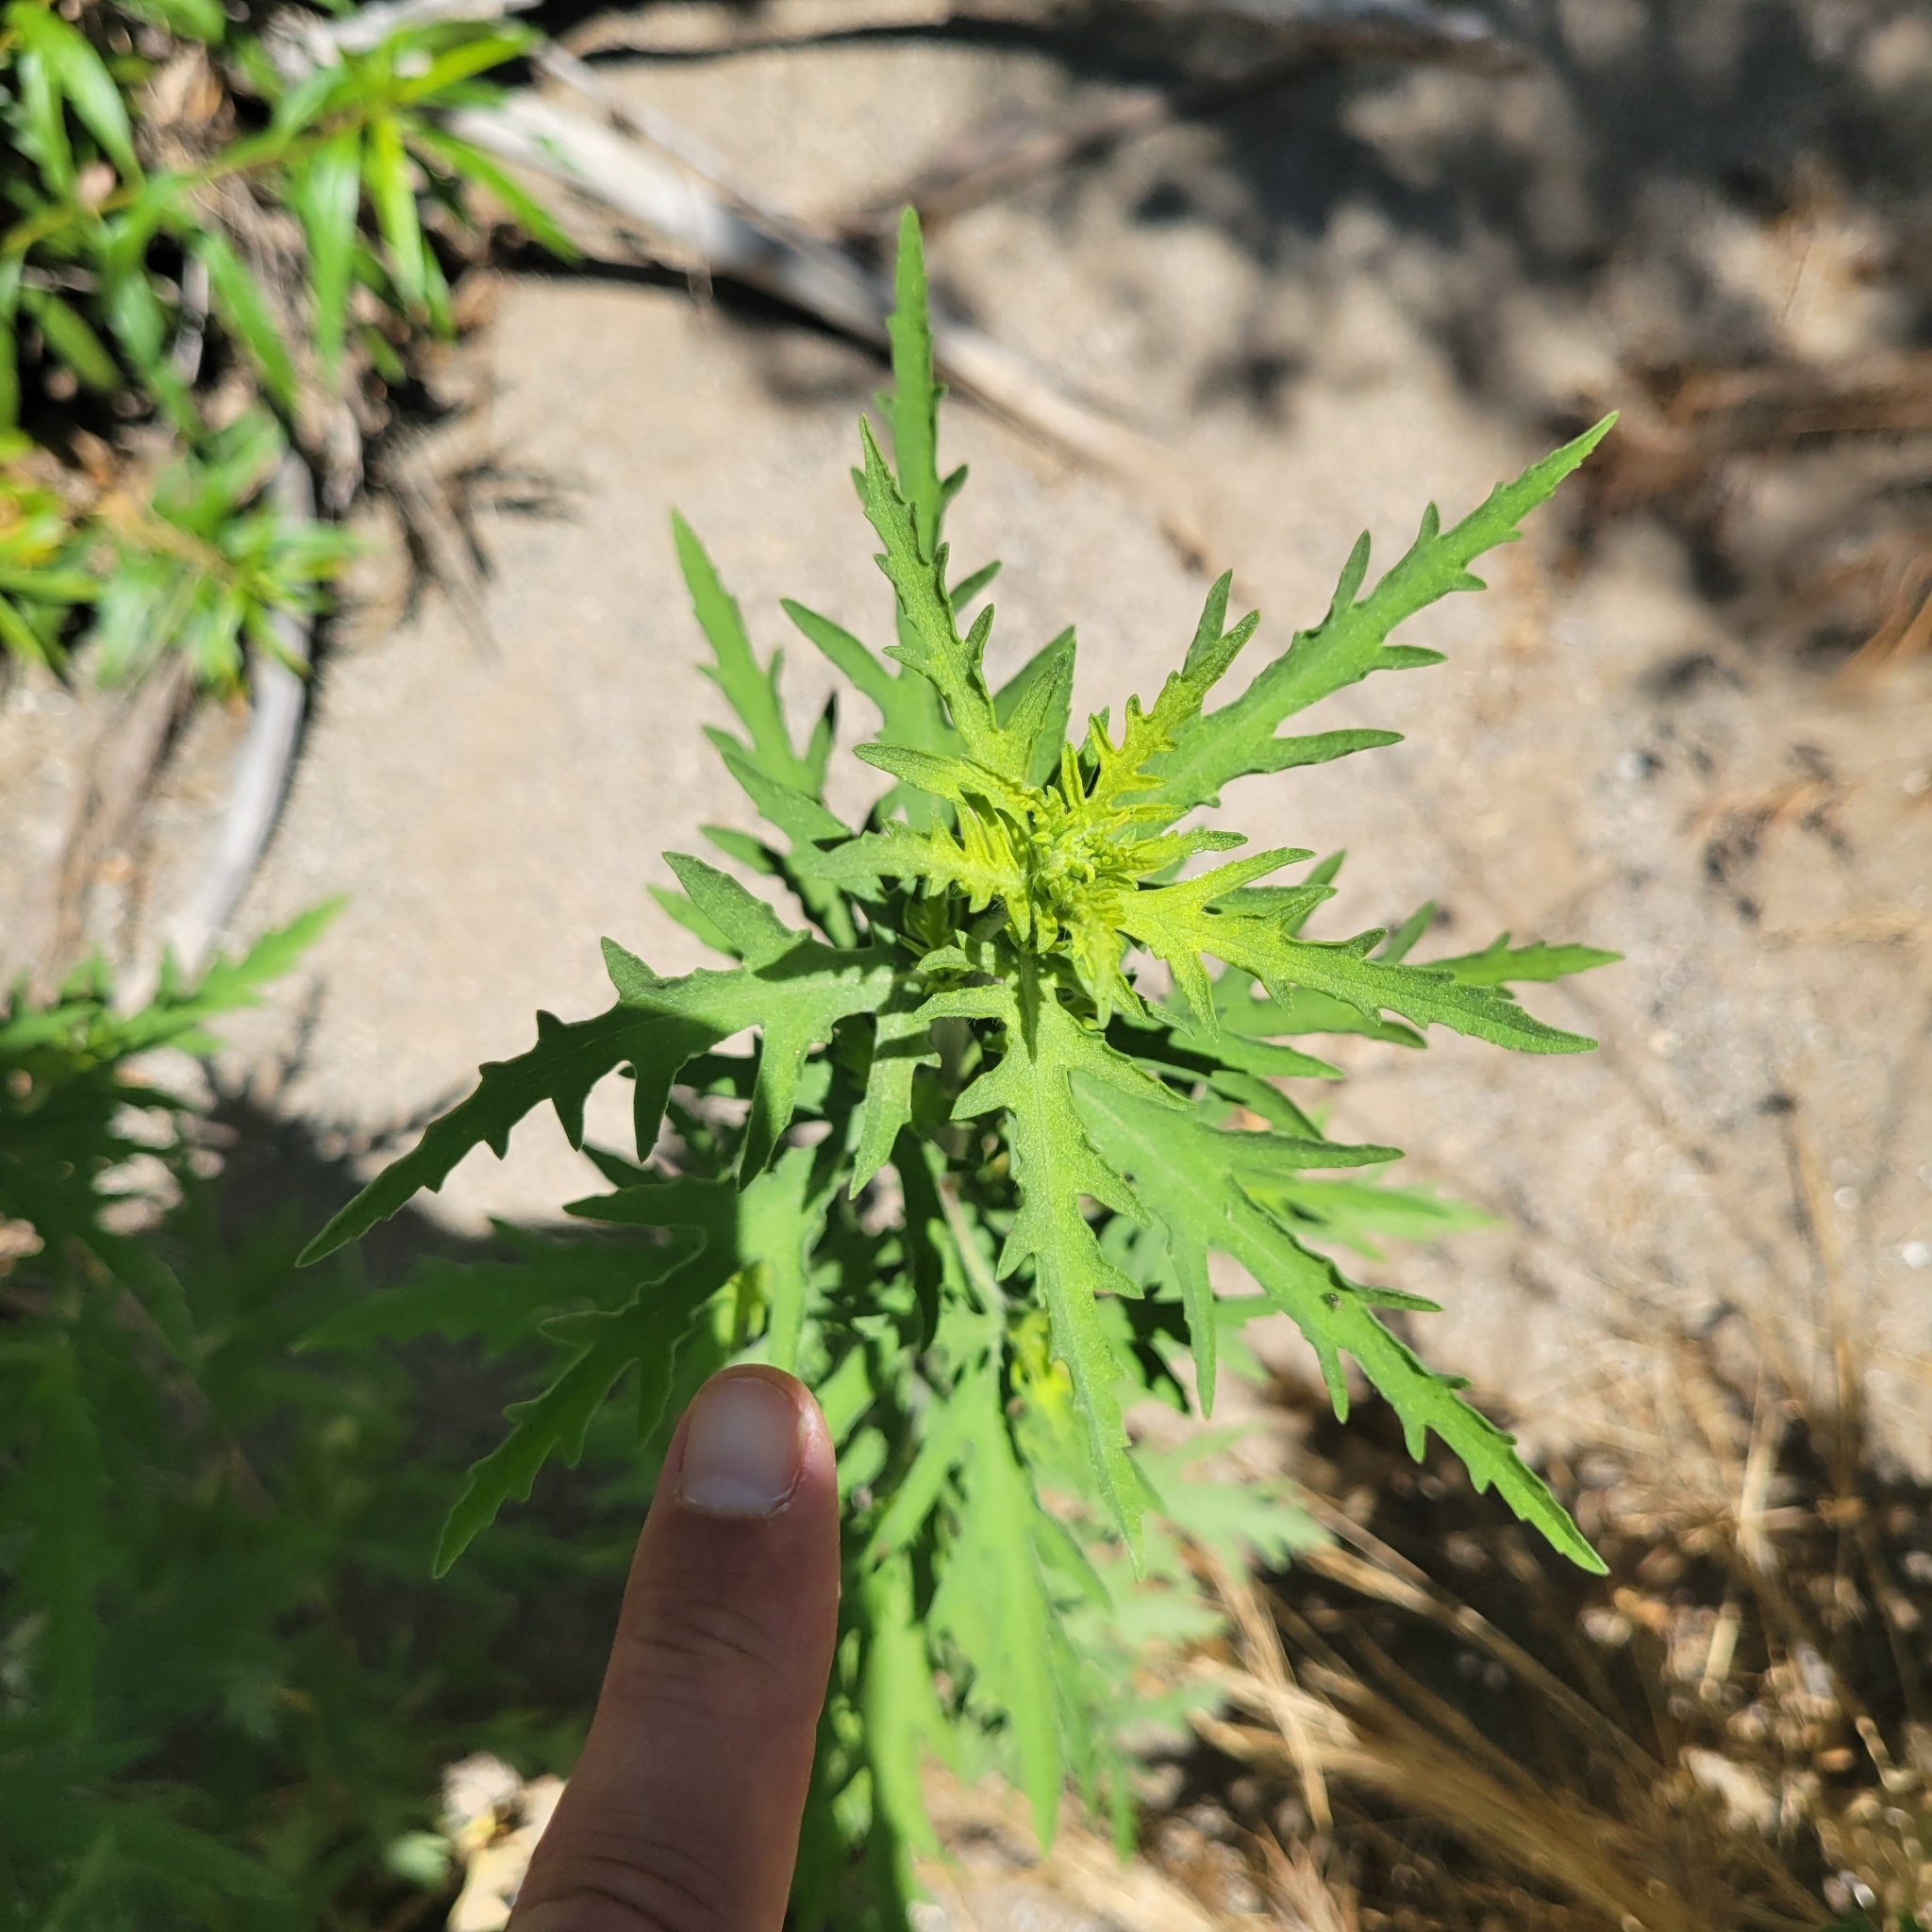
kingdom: Plantae
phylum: Tracheophyta
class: Magnoliopsida
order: Asterales
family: Asteraceae
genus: Ambrosia
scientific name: Ambrosia psilostachya
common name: Perennial ragweed
